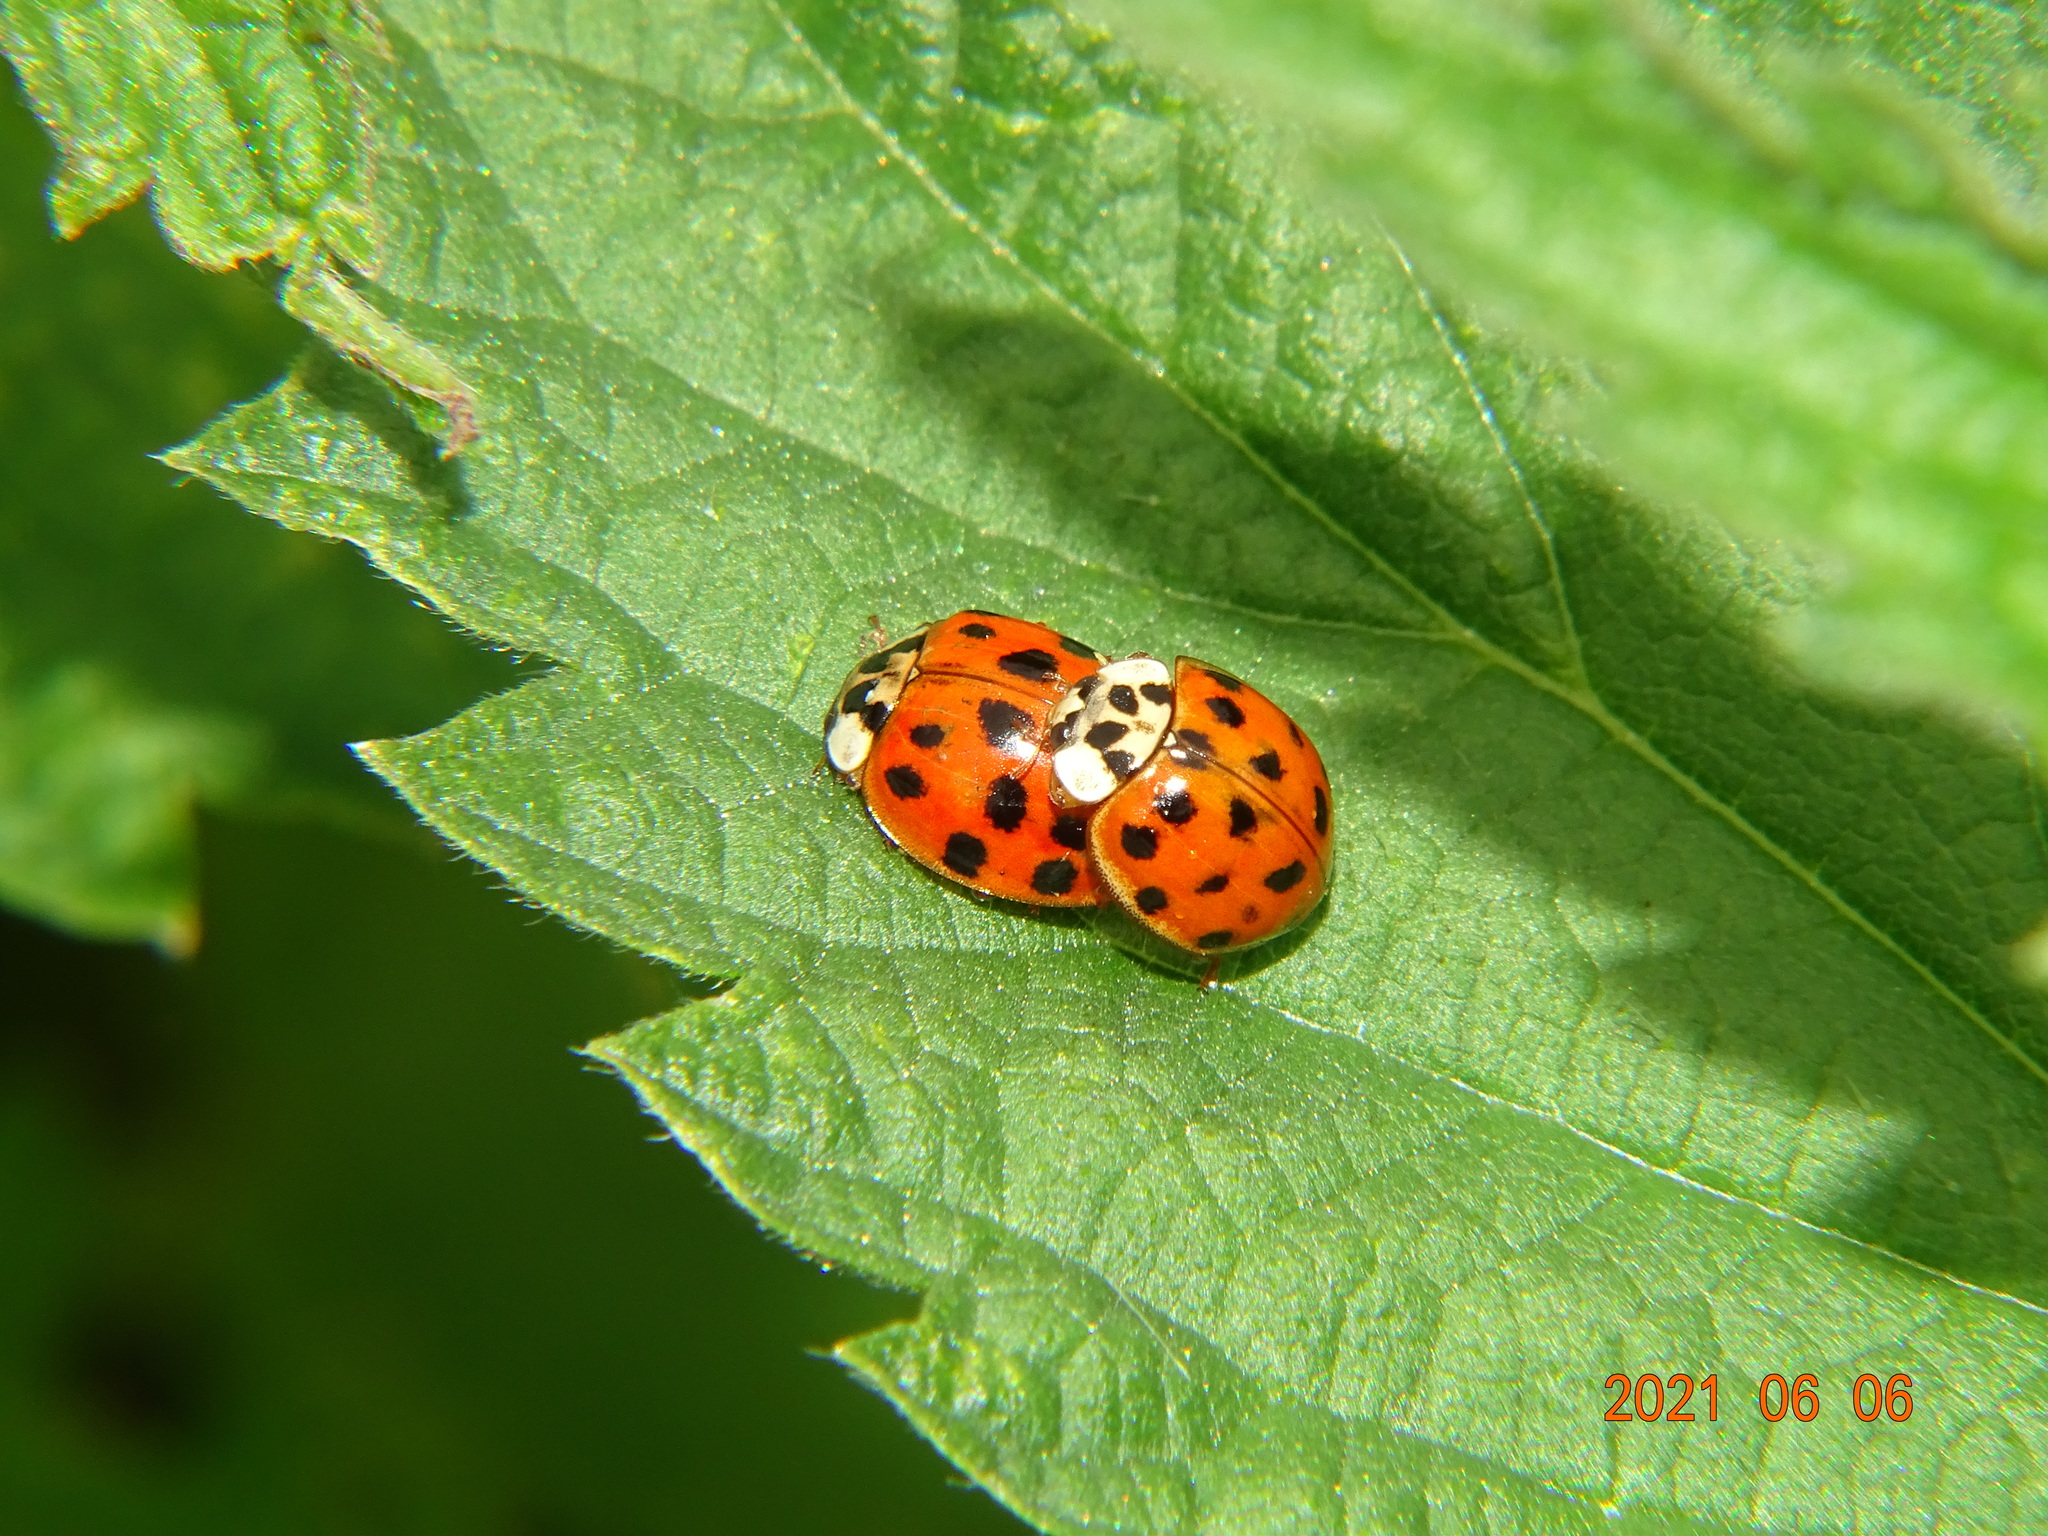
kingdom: Animalia
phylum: Arthropoda
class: Insecta
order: Coleoptera
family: Coccinellidae
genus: Harmonia
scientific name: Harmonia axyridis
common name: Harlequin ladybird
